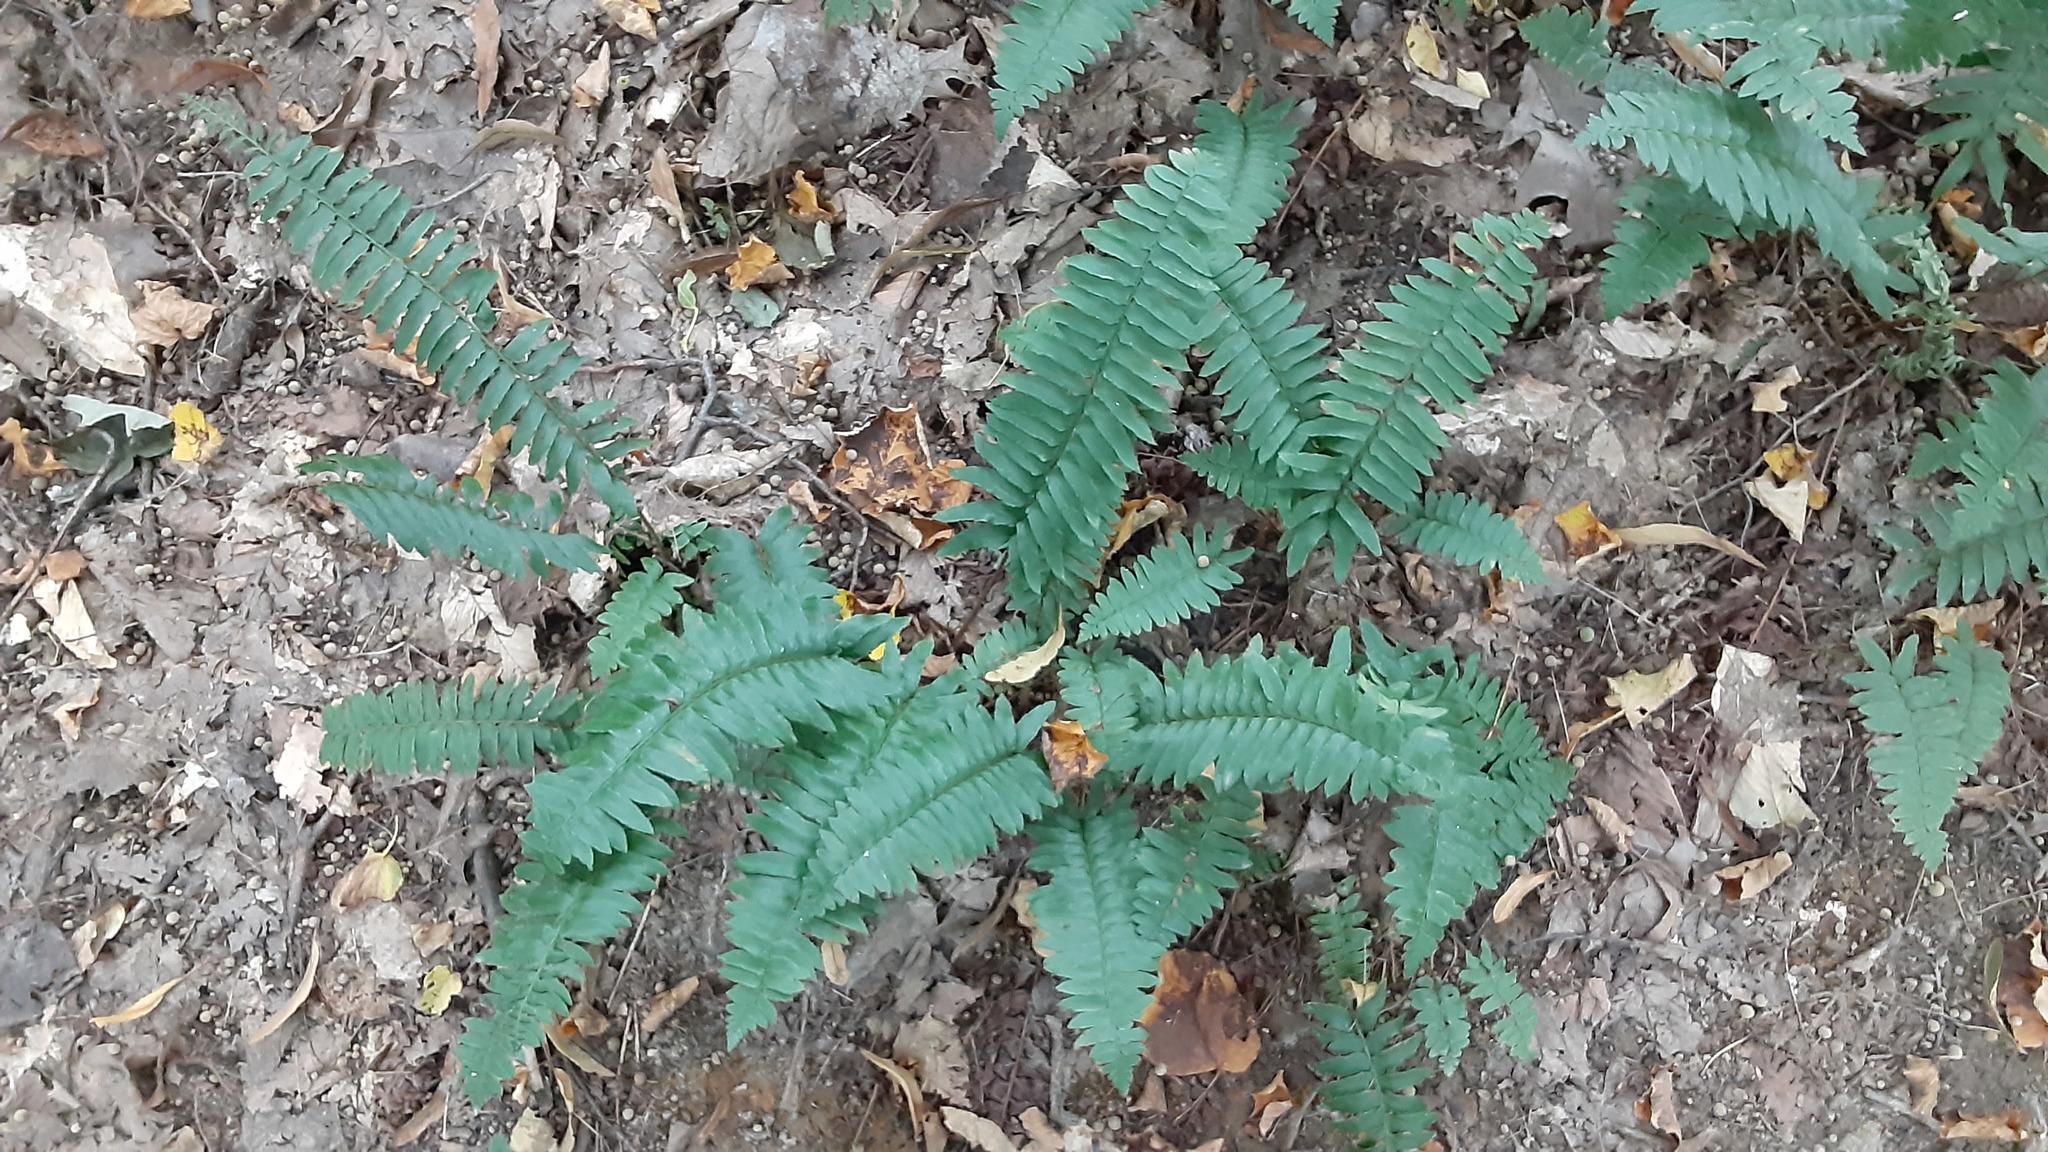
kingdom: Plantae
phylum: Tracheophyta
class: Polypodiopsida
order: Polypodiales
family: Dryopteridaceae
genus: Polystichum
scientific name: Polystichum acrostichoides
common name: Christmas fern
